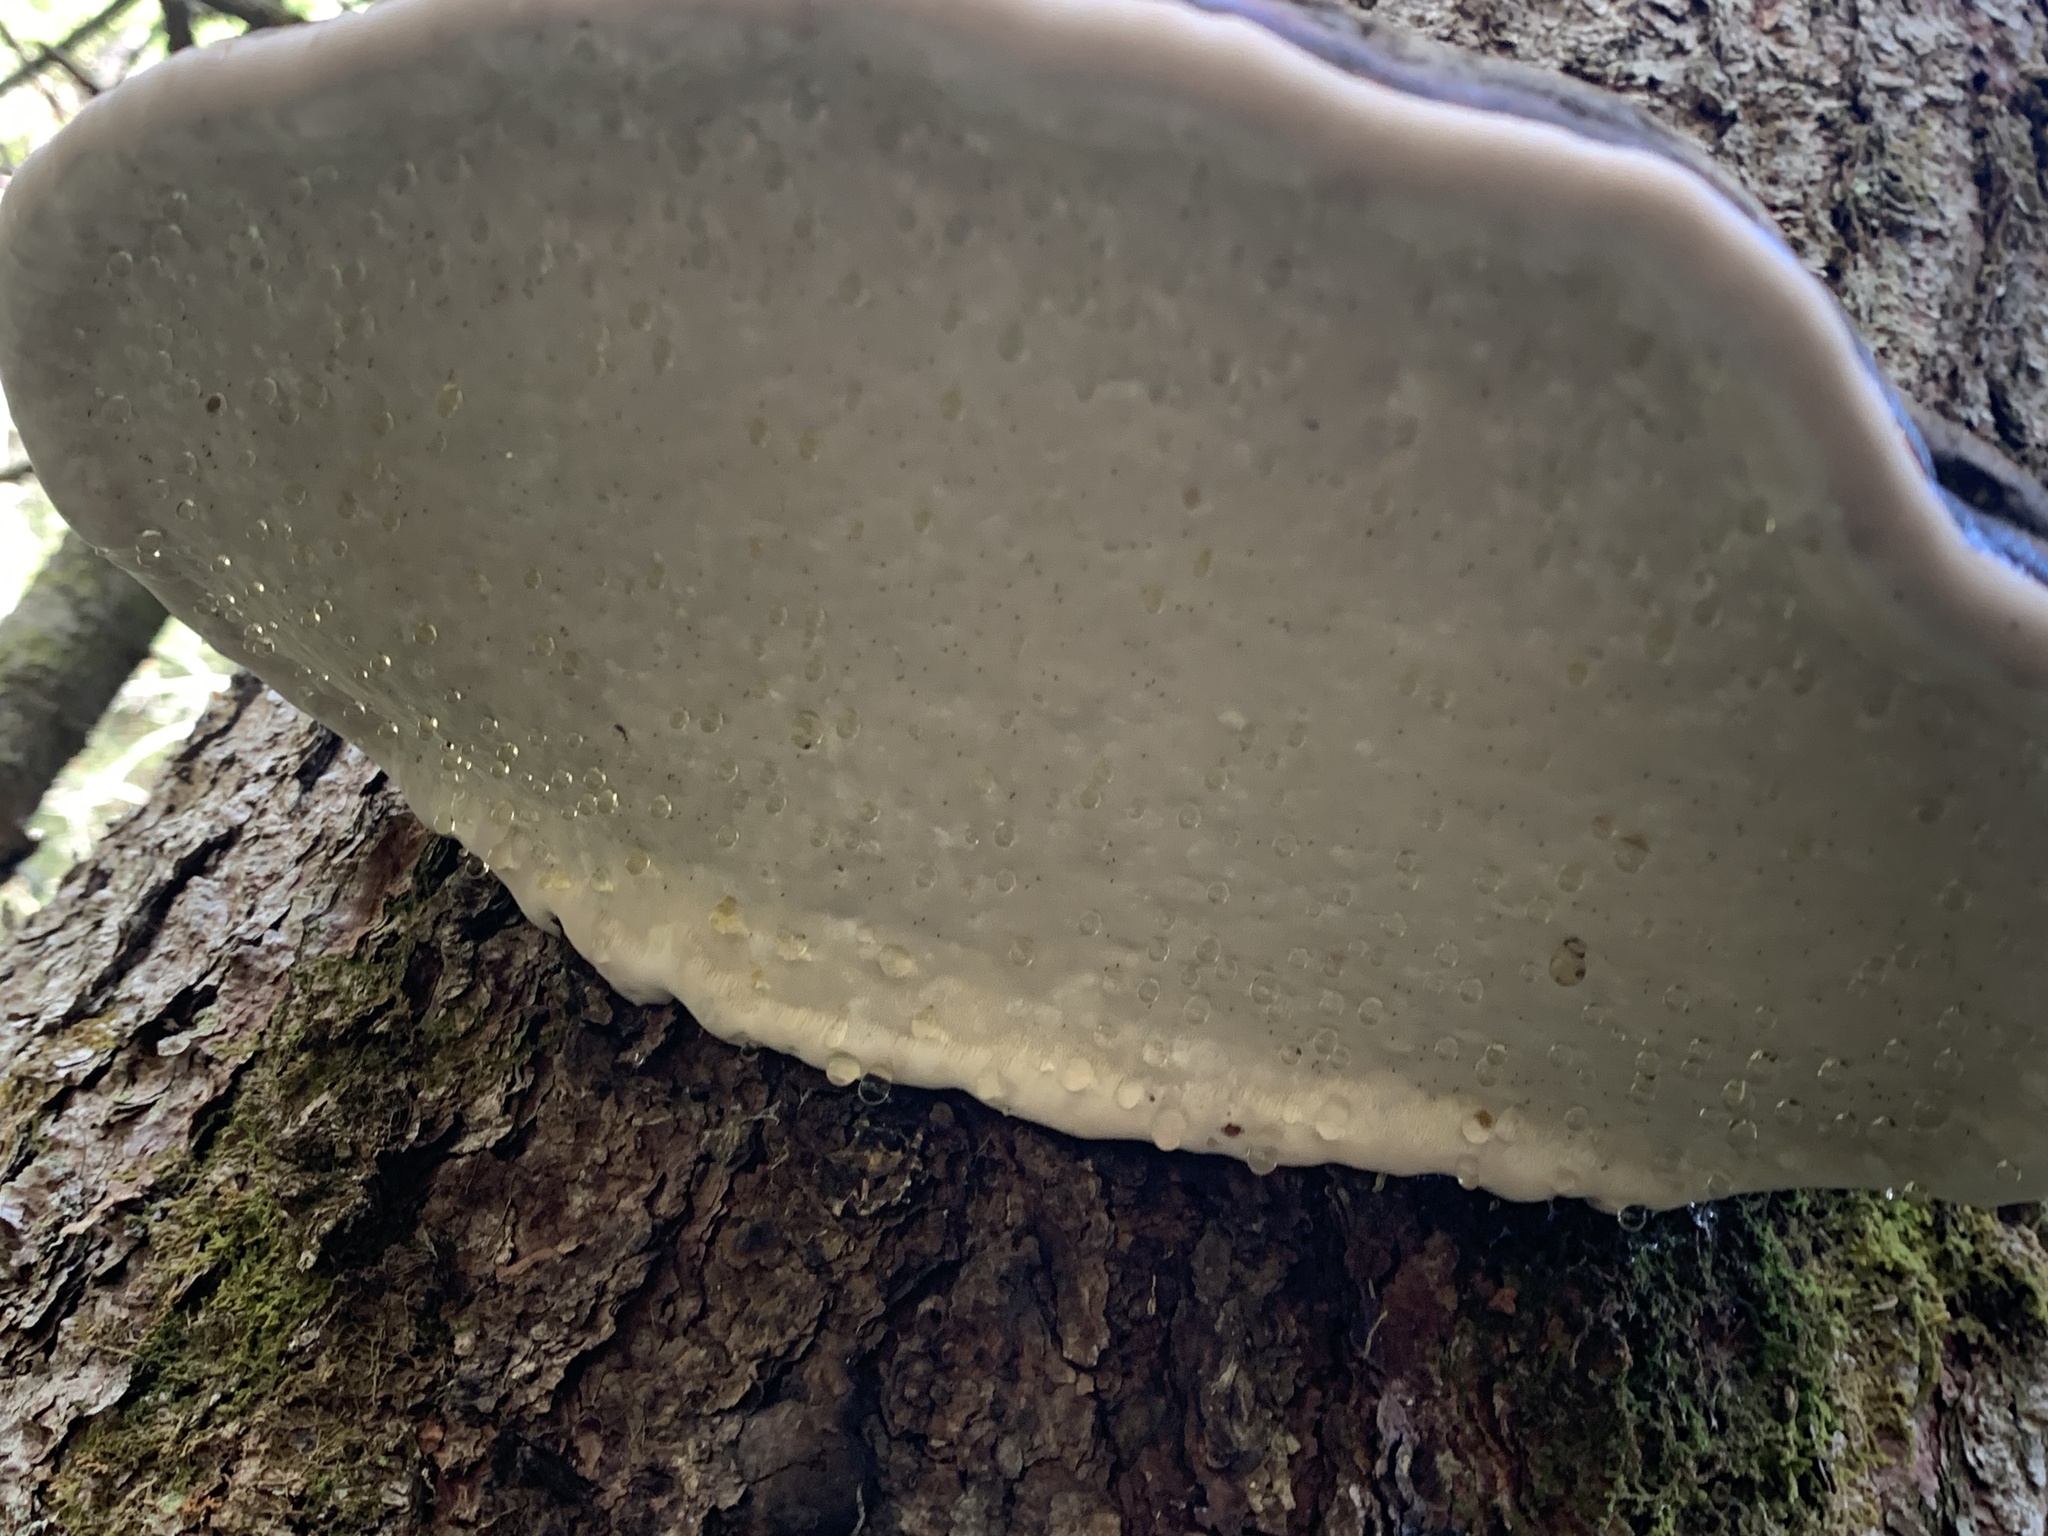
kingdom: Fungi
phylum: Basidiomycota
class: Agaricomycetes
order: Polyporales
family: Fomitopsidaceae
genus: Fomitopsis
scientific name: Fomitopsis mounceae
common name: Northern red belt
